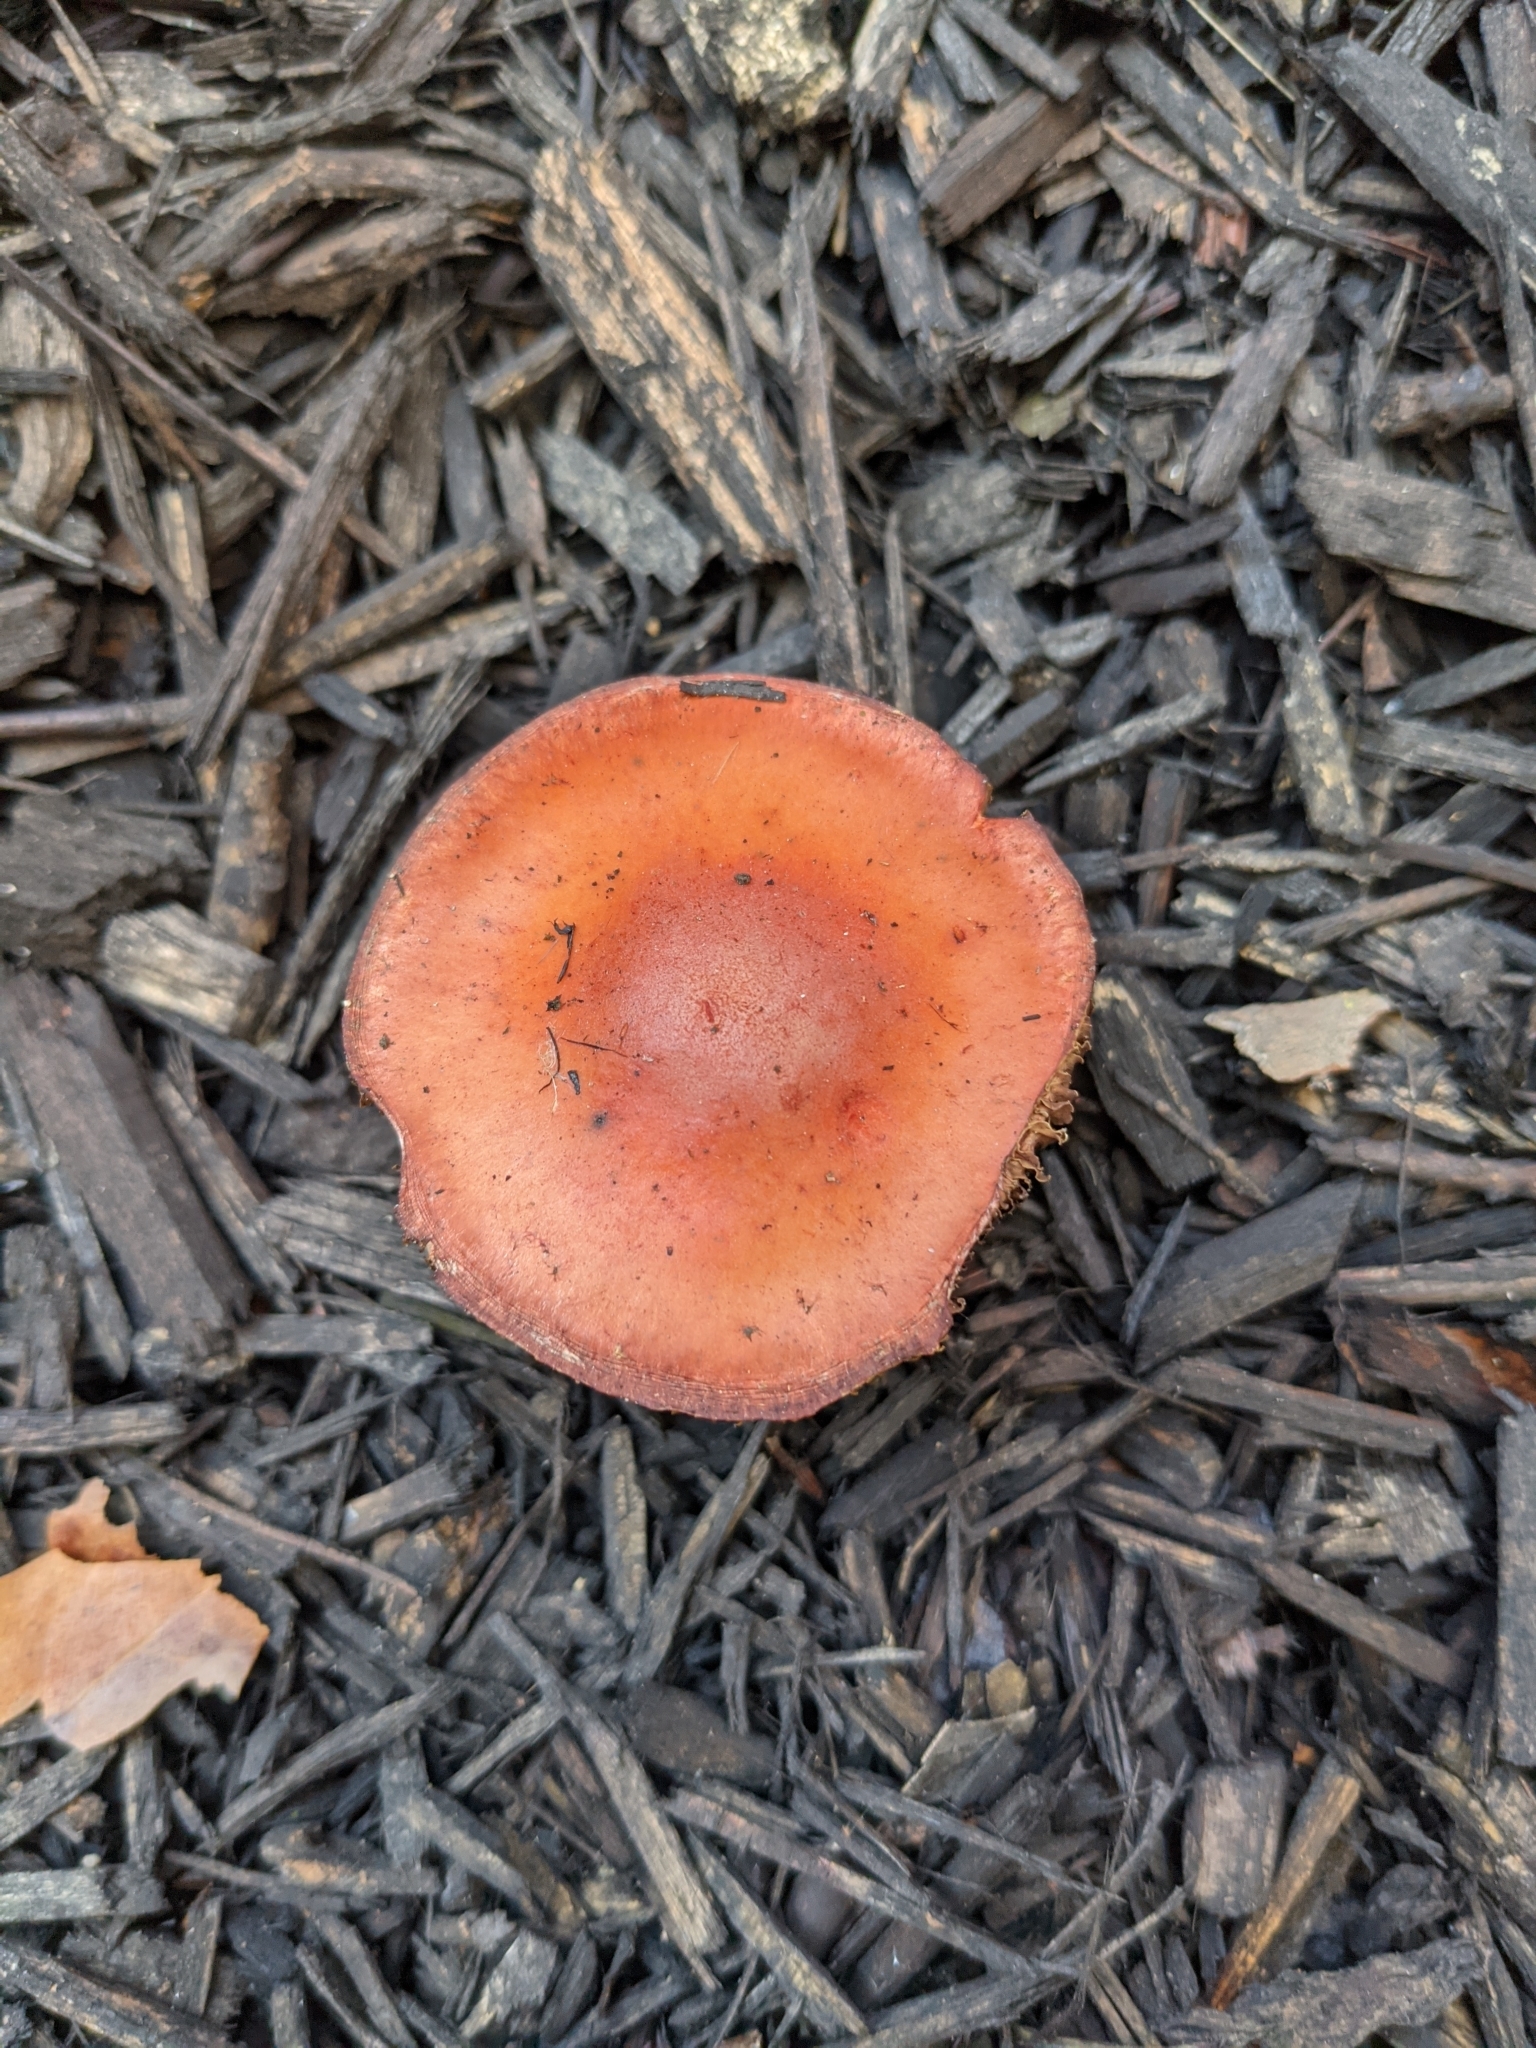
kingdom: Fungi
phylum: Basidiomycota
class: Agaricomycetes
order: Agaricales
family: Strophariaceae
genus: Leratiomyces
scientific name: Leratiomyces ceres
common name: Redlead roundhead
